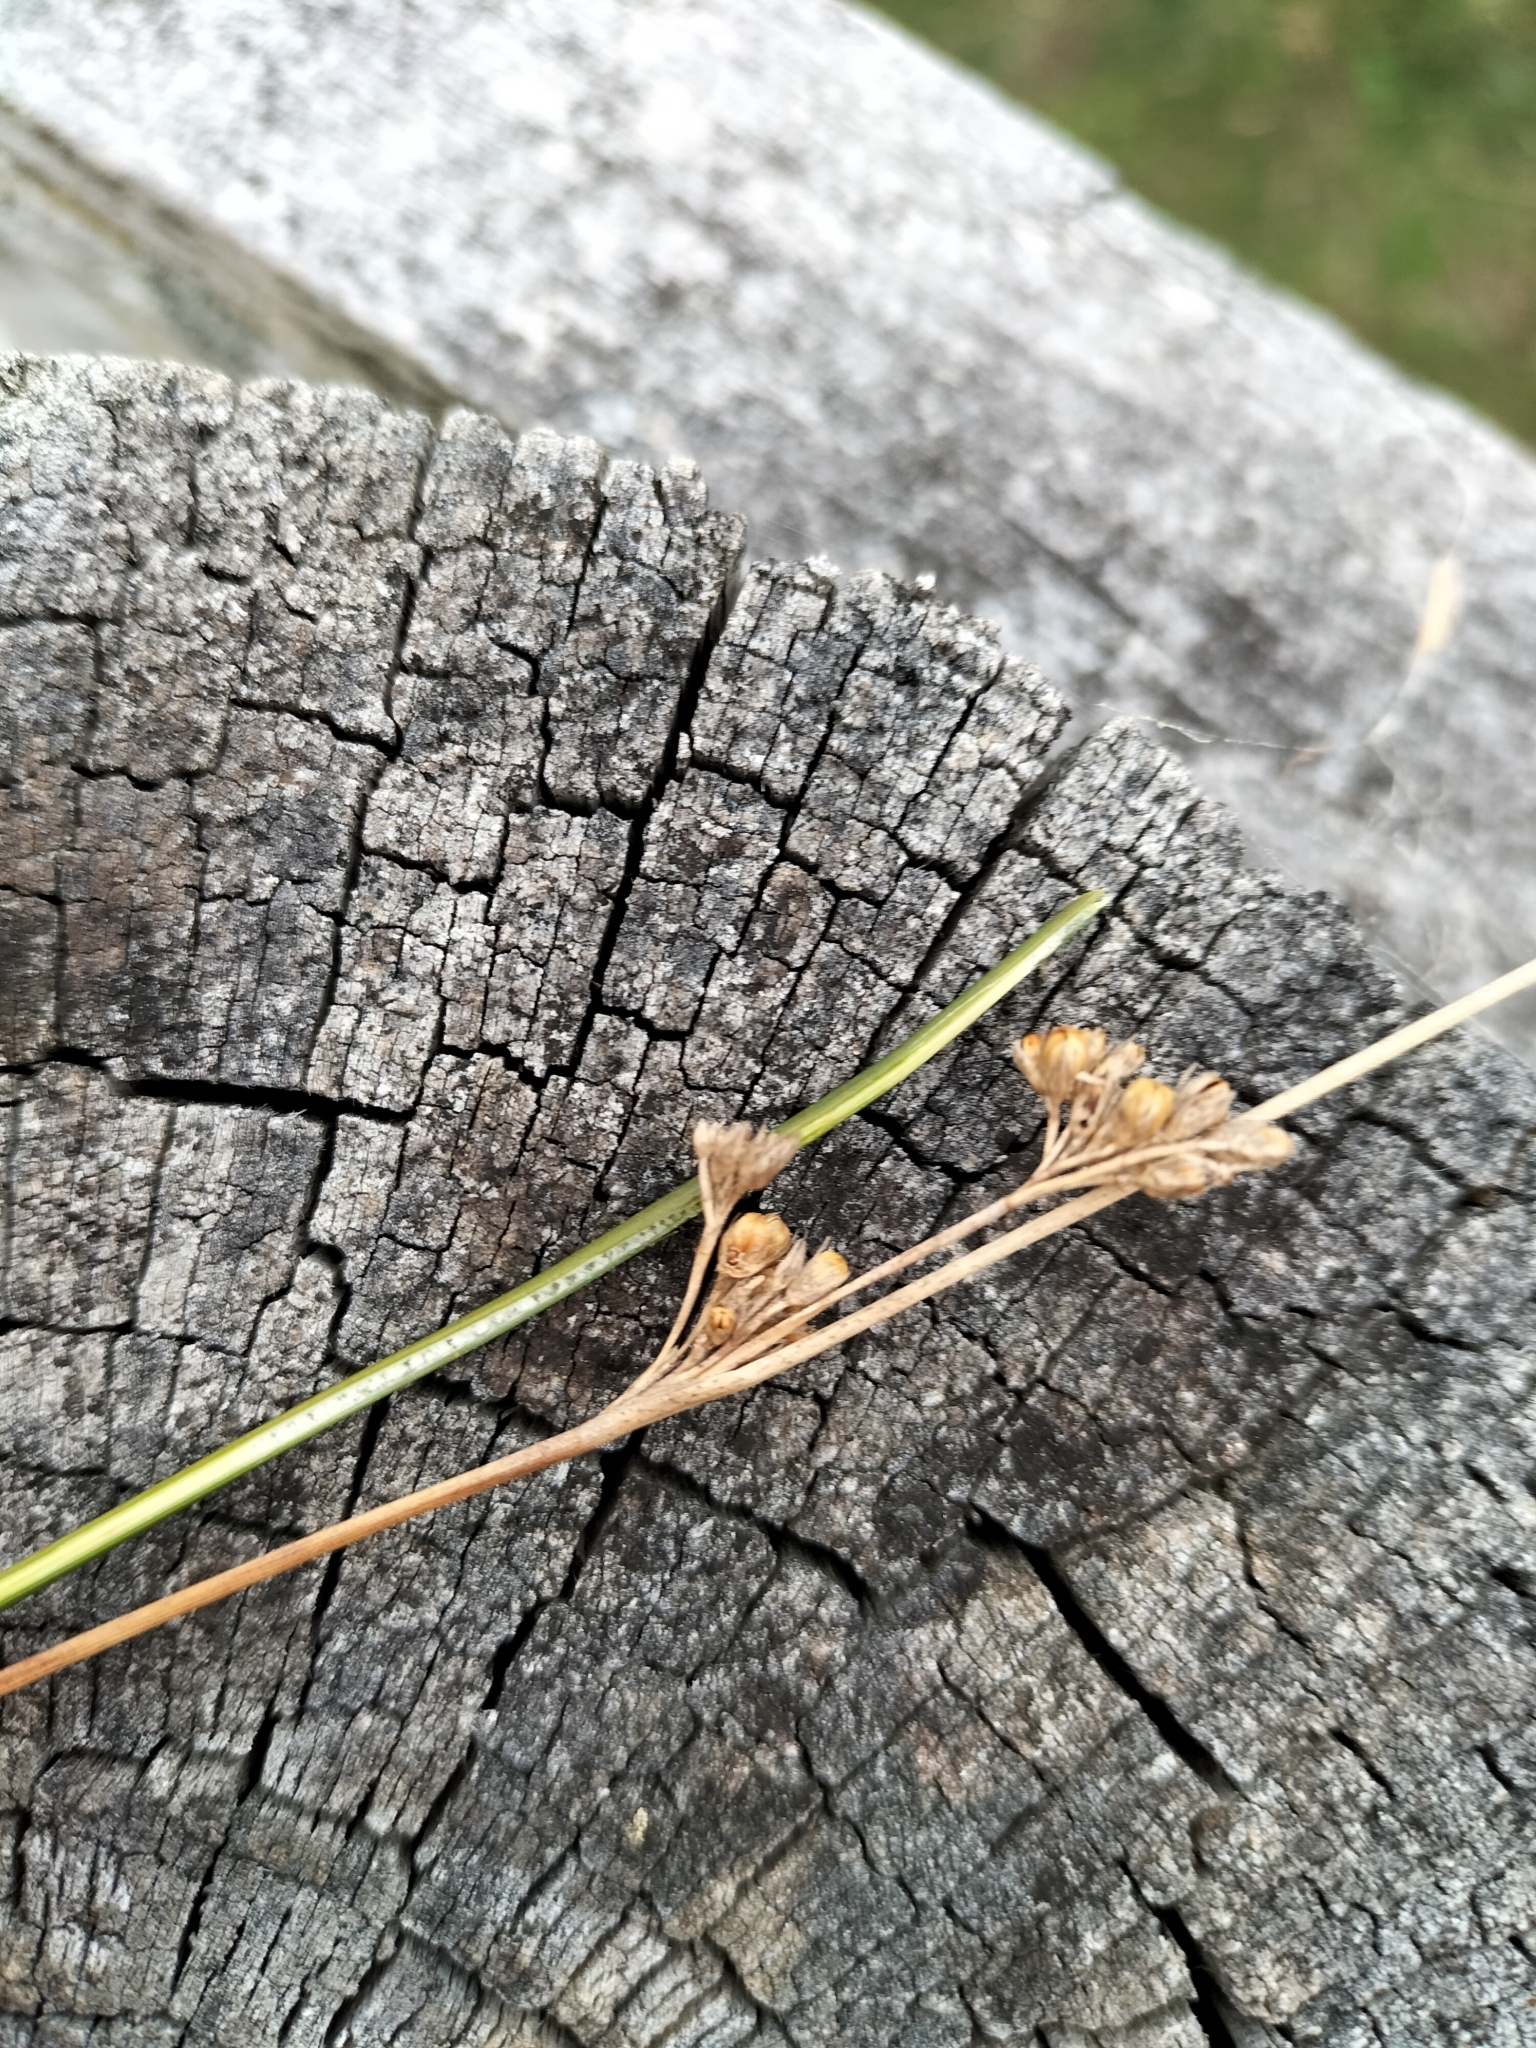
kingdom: Plantae
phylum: Tracheophyta
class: Liliopsida
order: Poales
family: Juncaceae
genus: Juncus
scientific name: Juncus distegus
